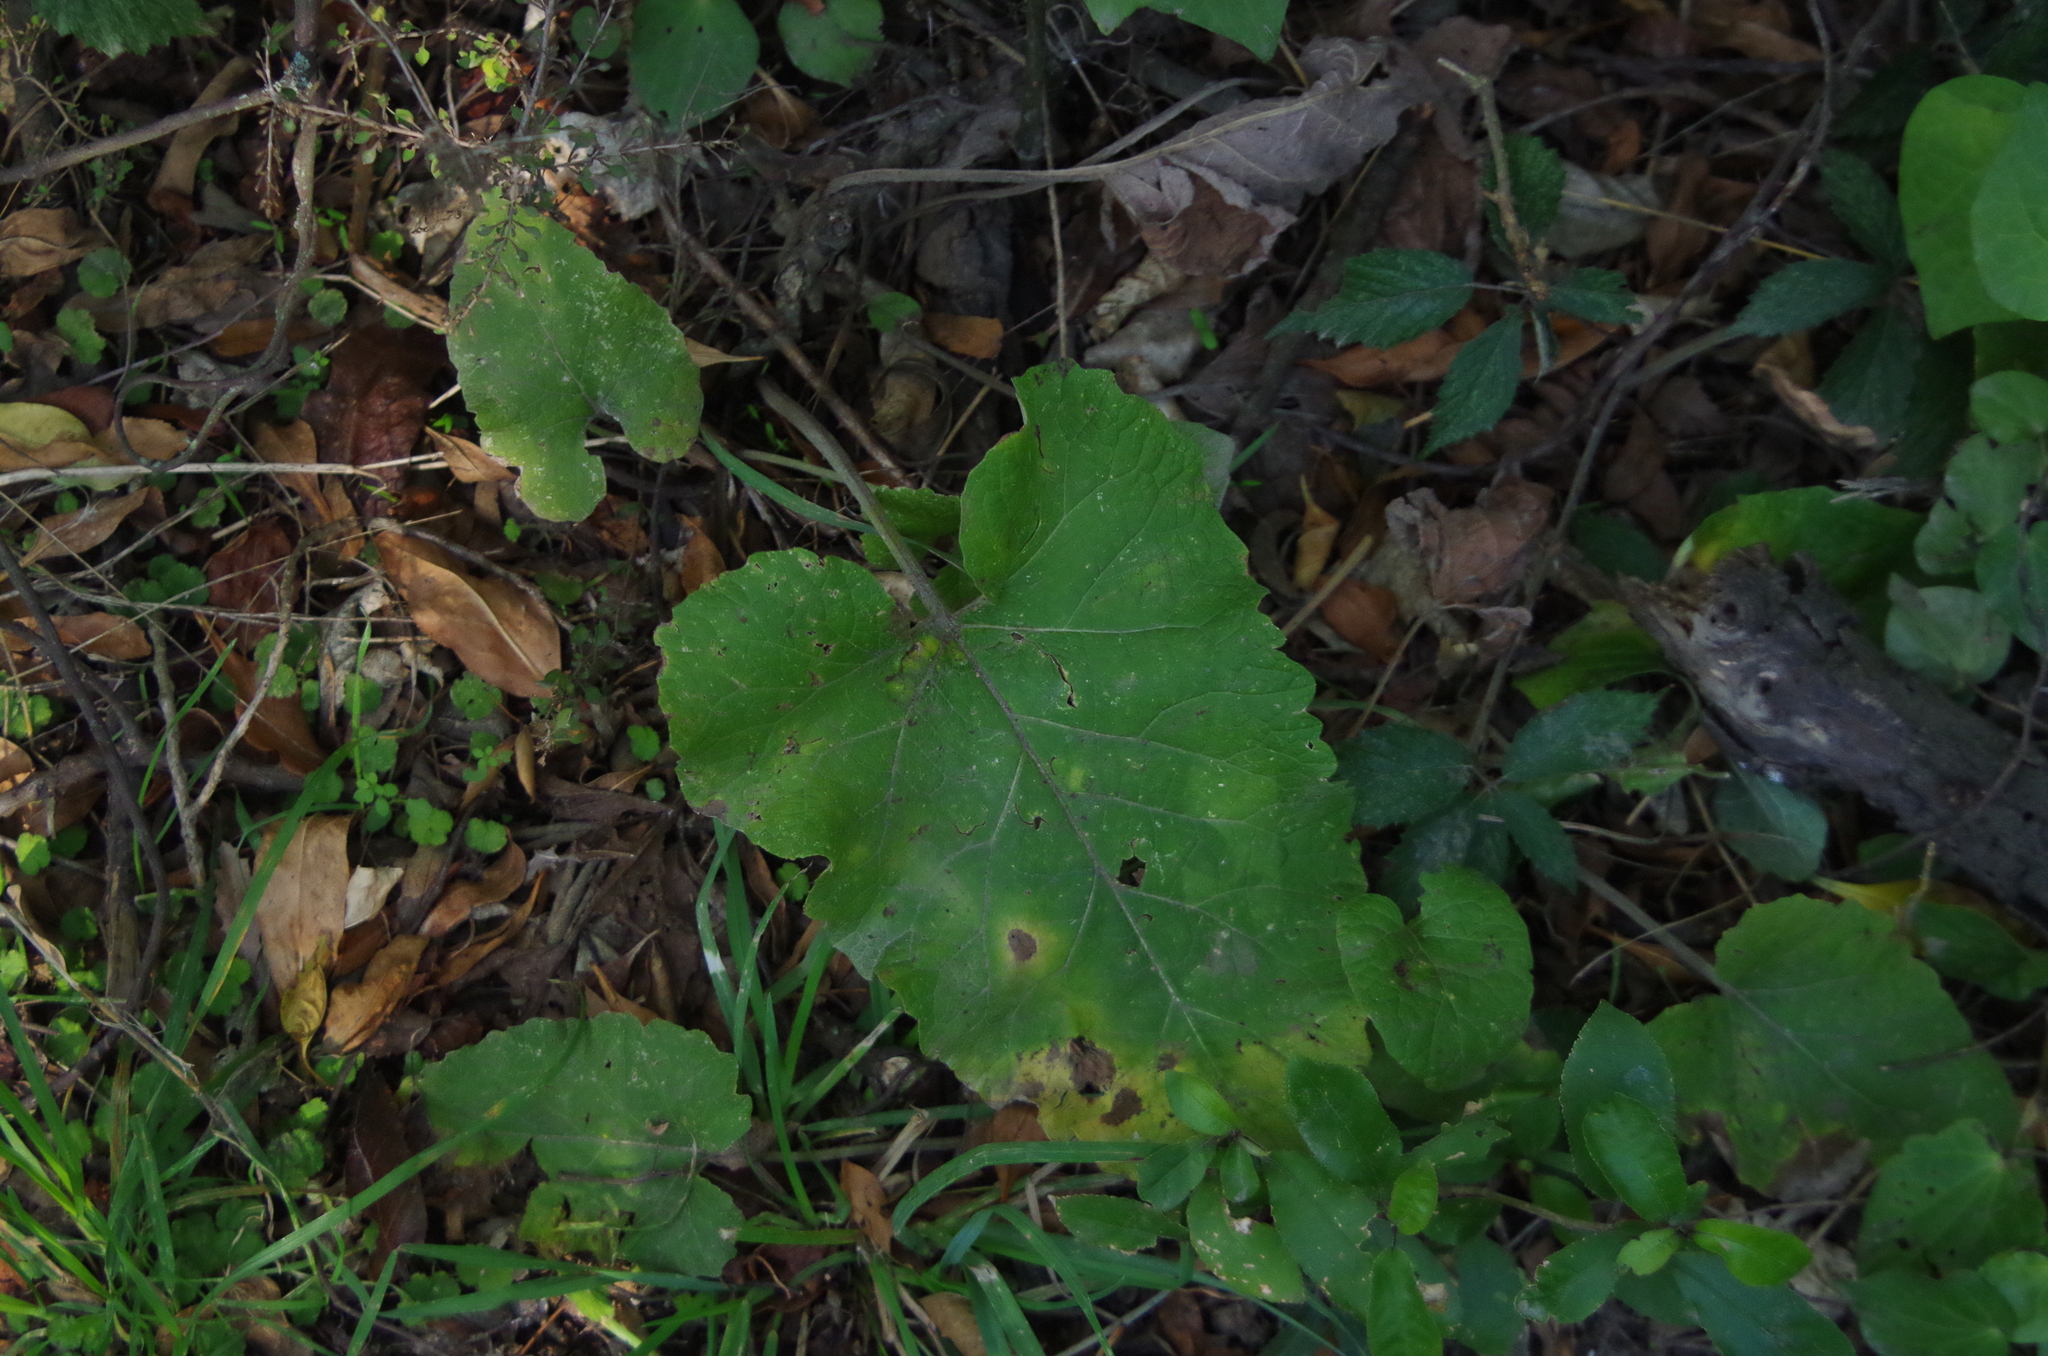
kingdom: Plantae
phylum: Tracheophyta
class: Magnoliopsida
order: Asterales
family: Asteraceae
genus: Arctium
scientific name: Arctium minus
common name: Lesser burdock
